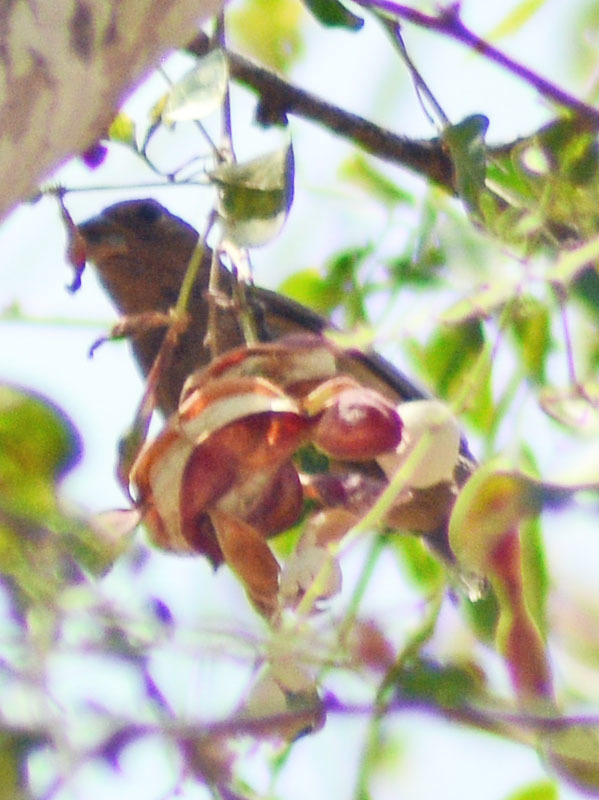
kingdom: Animalia
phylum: Chordata
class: Aves
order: Passeriformes
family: Fringillidae
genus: Haemorhous
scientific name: Haemorhous mexicanus
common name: House finch
